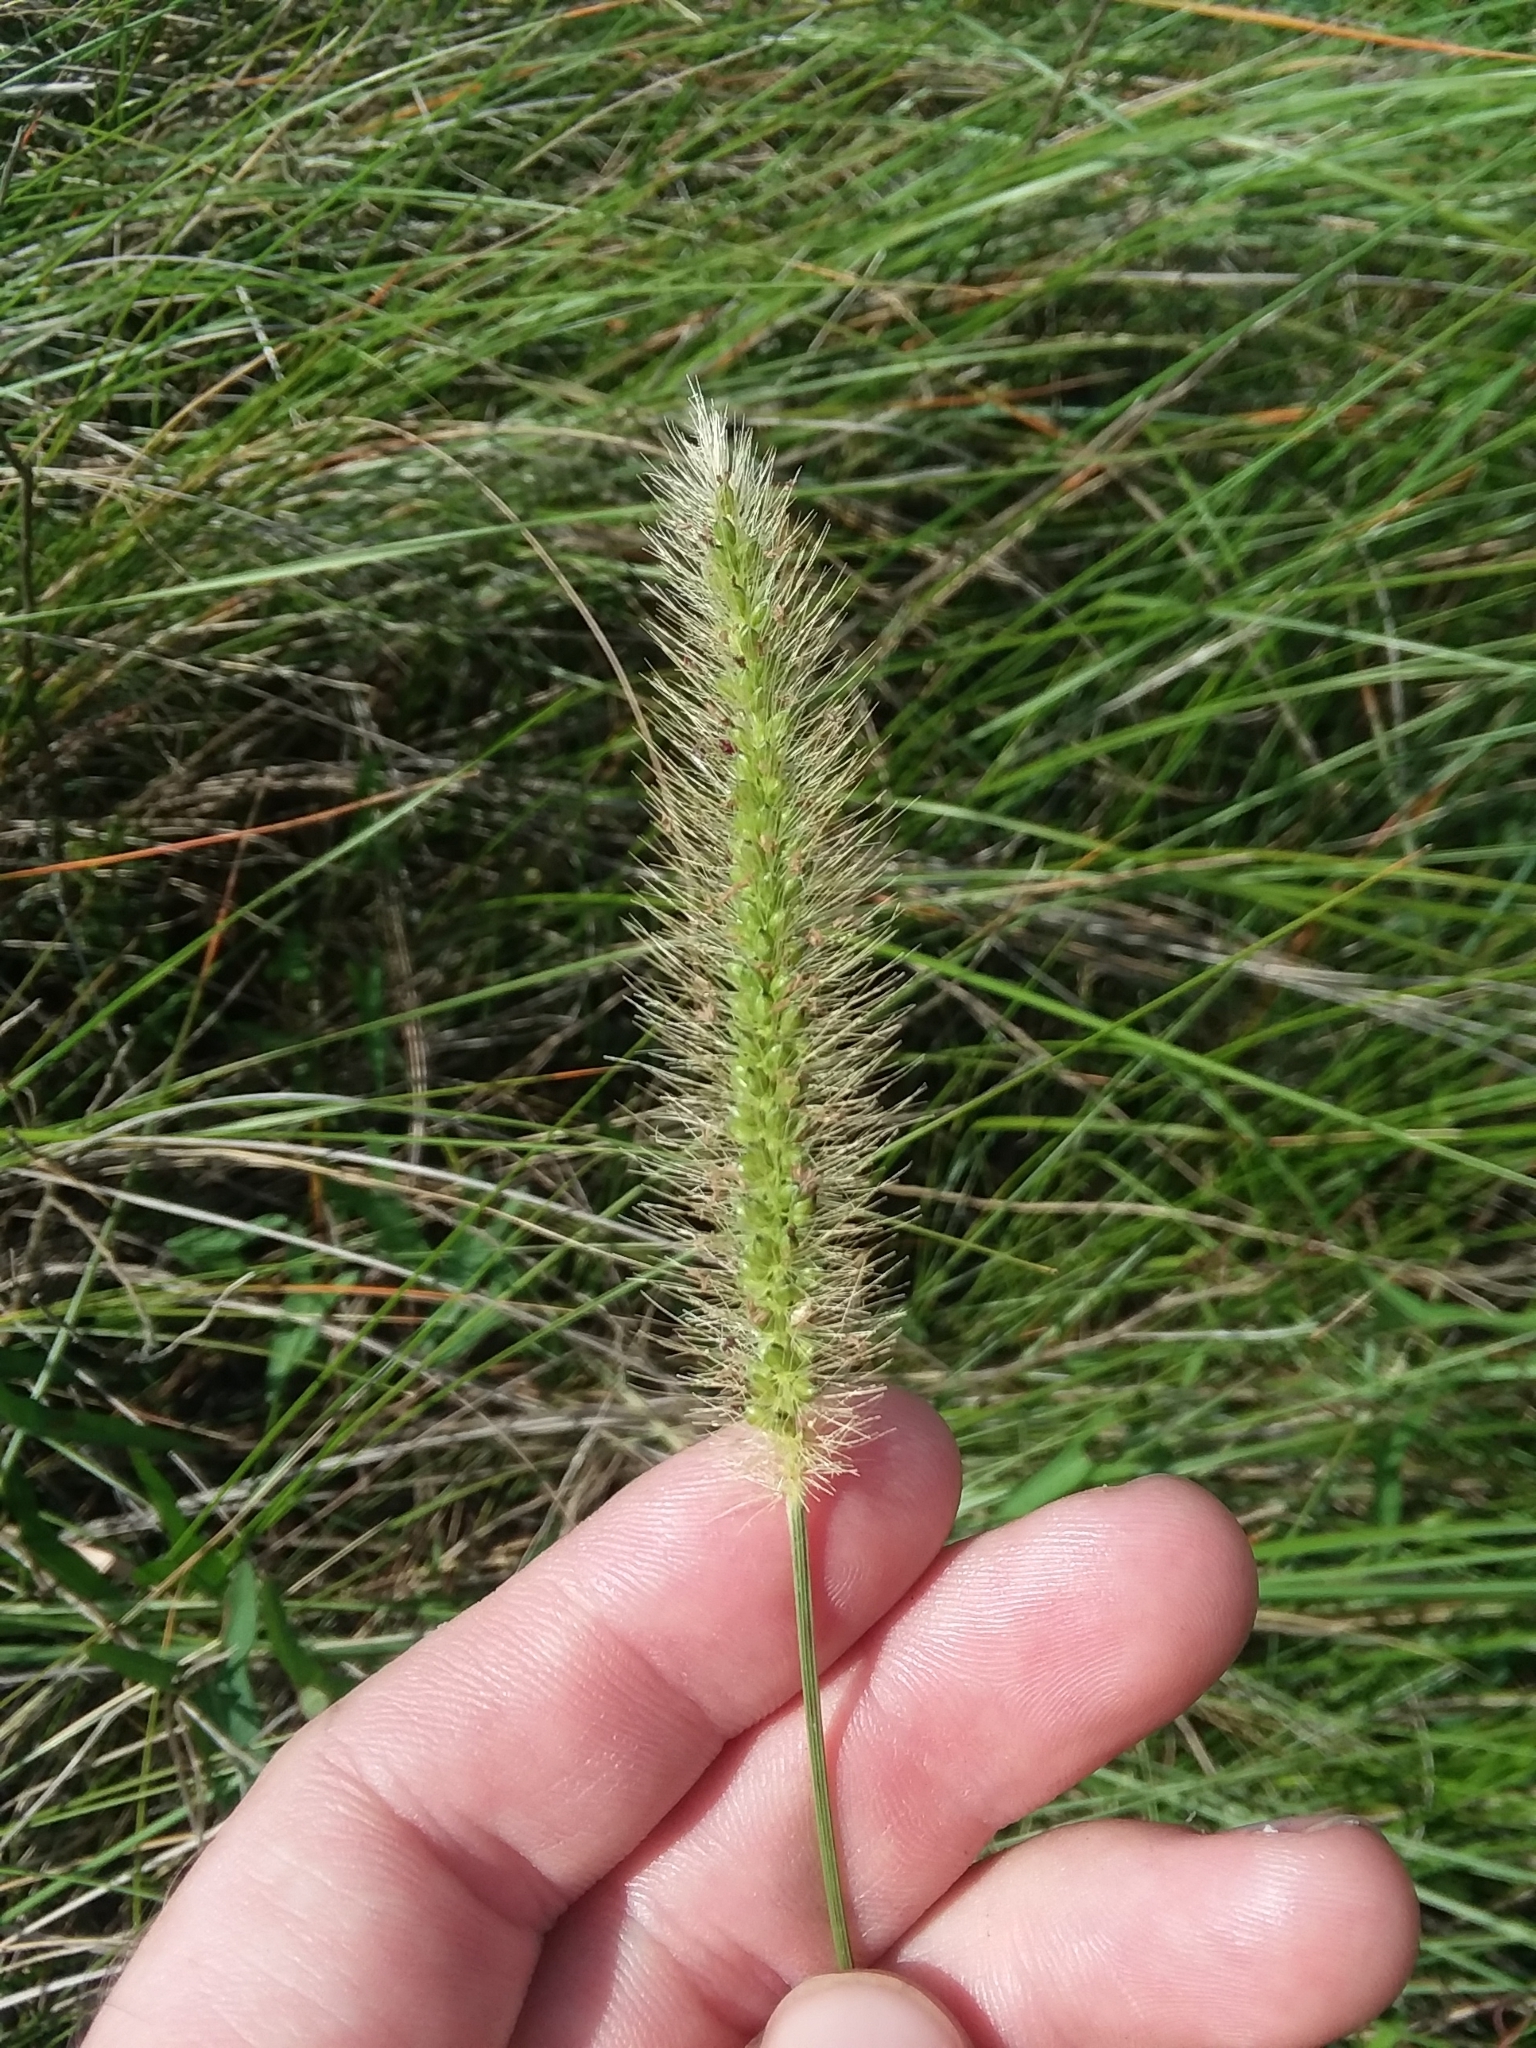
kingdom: Plantae
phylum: Tracheophyta
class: Liliopsida
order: Poales
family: Poaceae
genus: Setaria
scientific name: Setaria parviflora
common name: Knotroot bristle-grass
